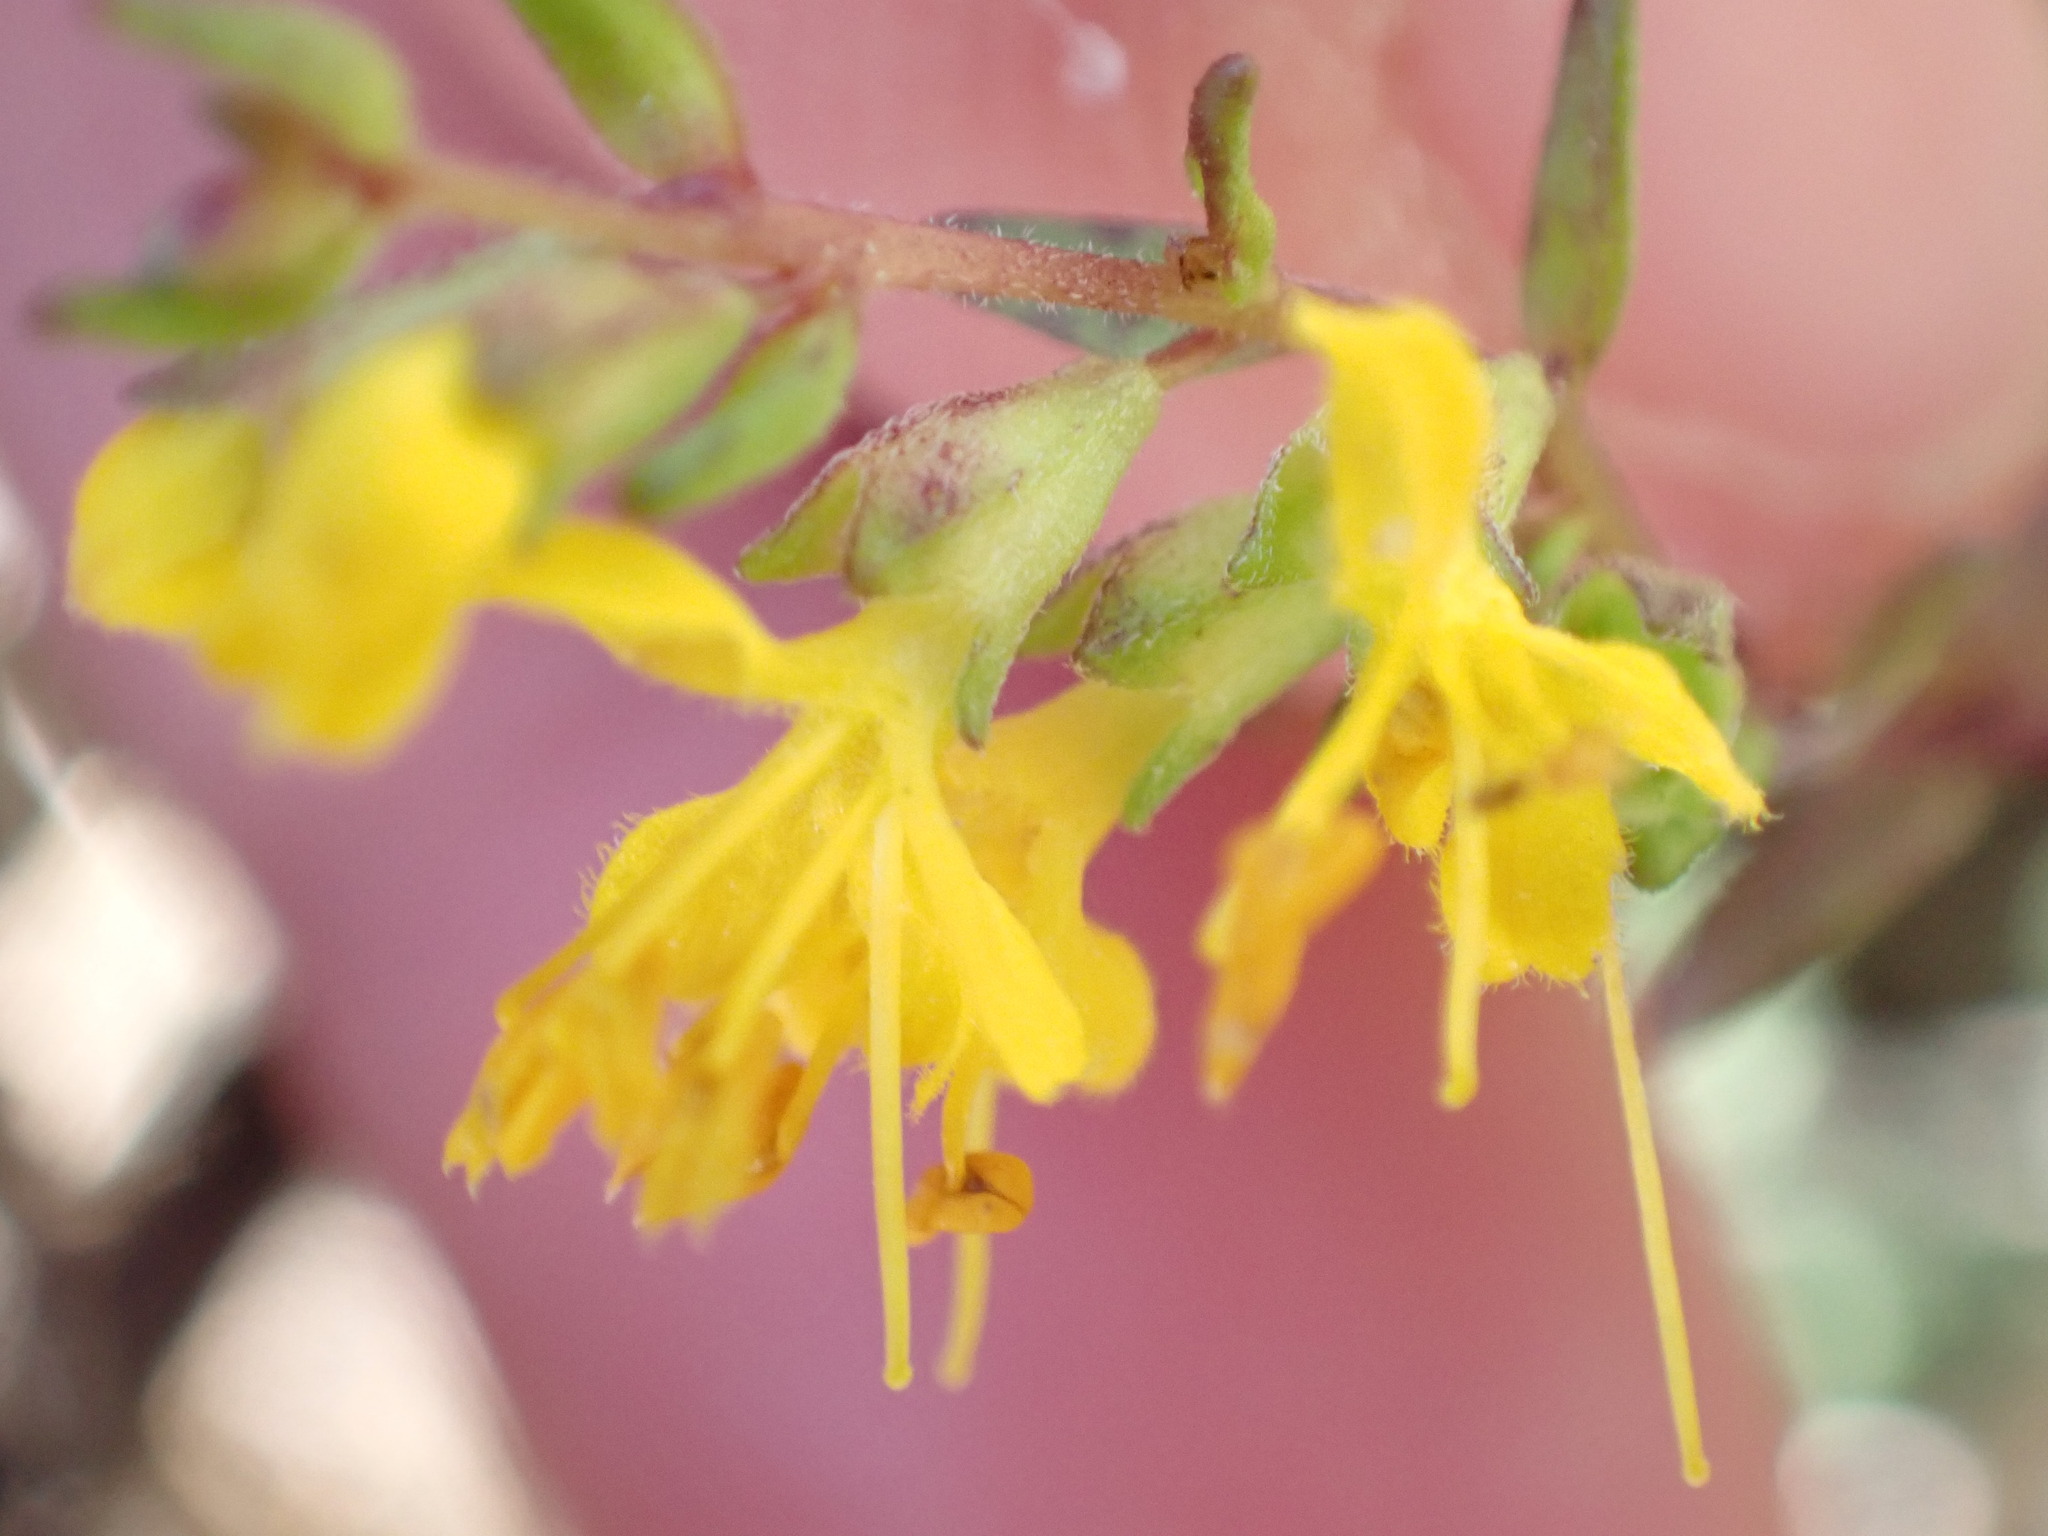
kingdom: Plantae
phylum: Tracheophyta
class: Magnoliopsida
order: Lamiales
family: Orobanchaceae
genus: Odontites
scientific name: Odontites luteus
